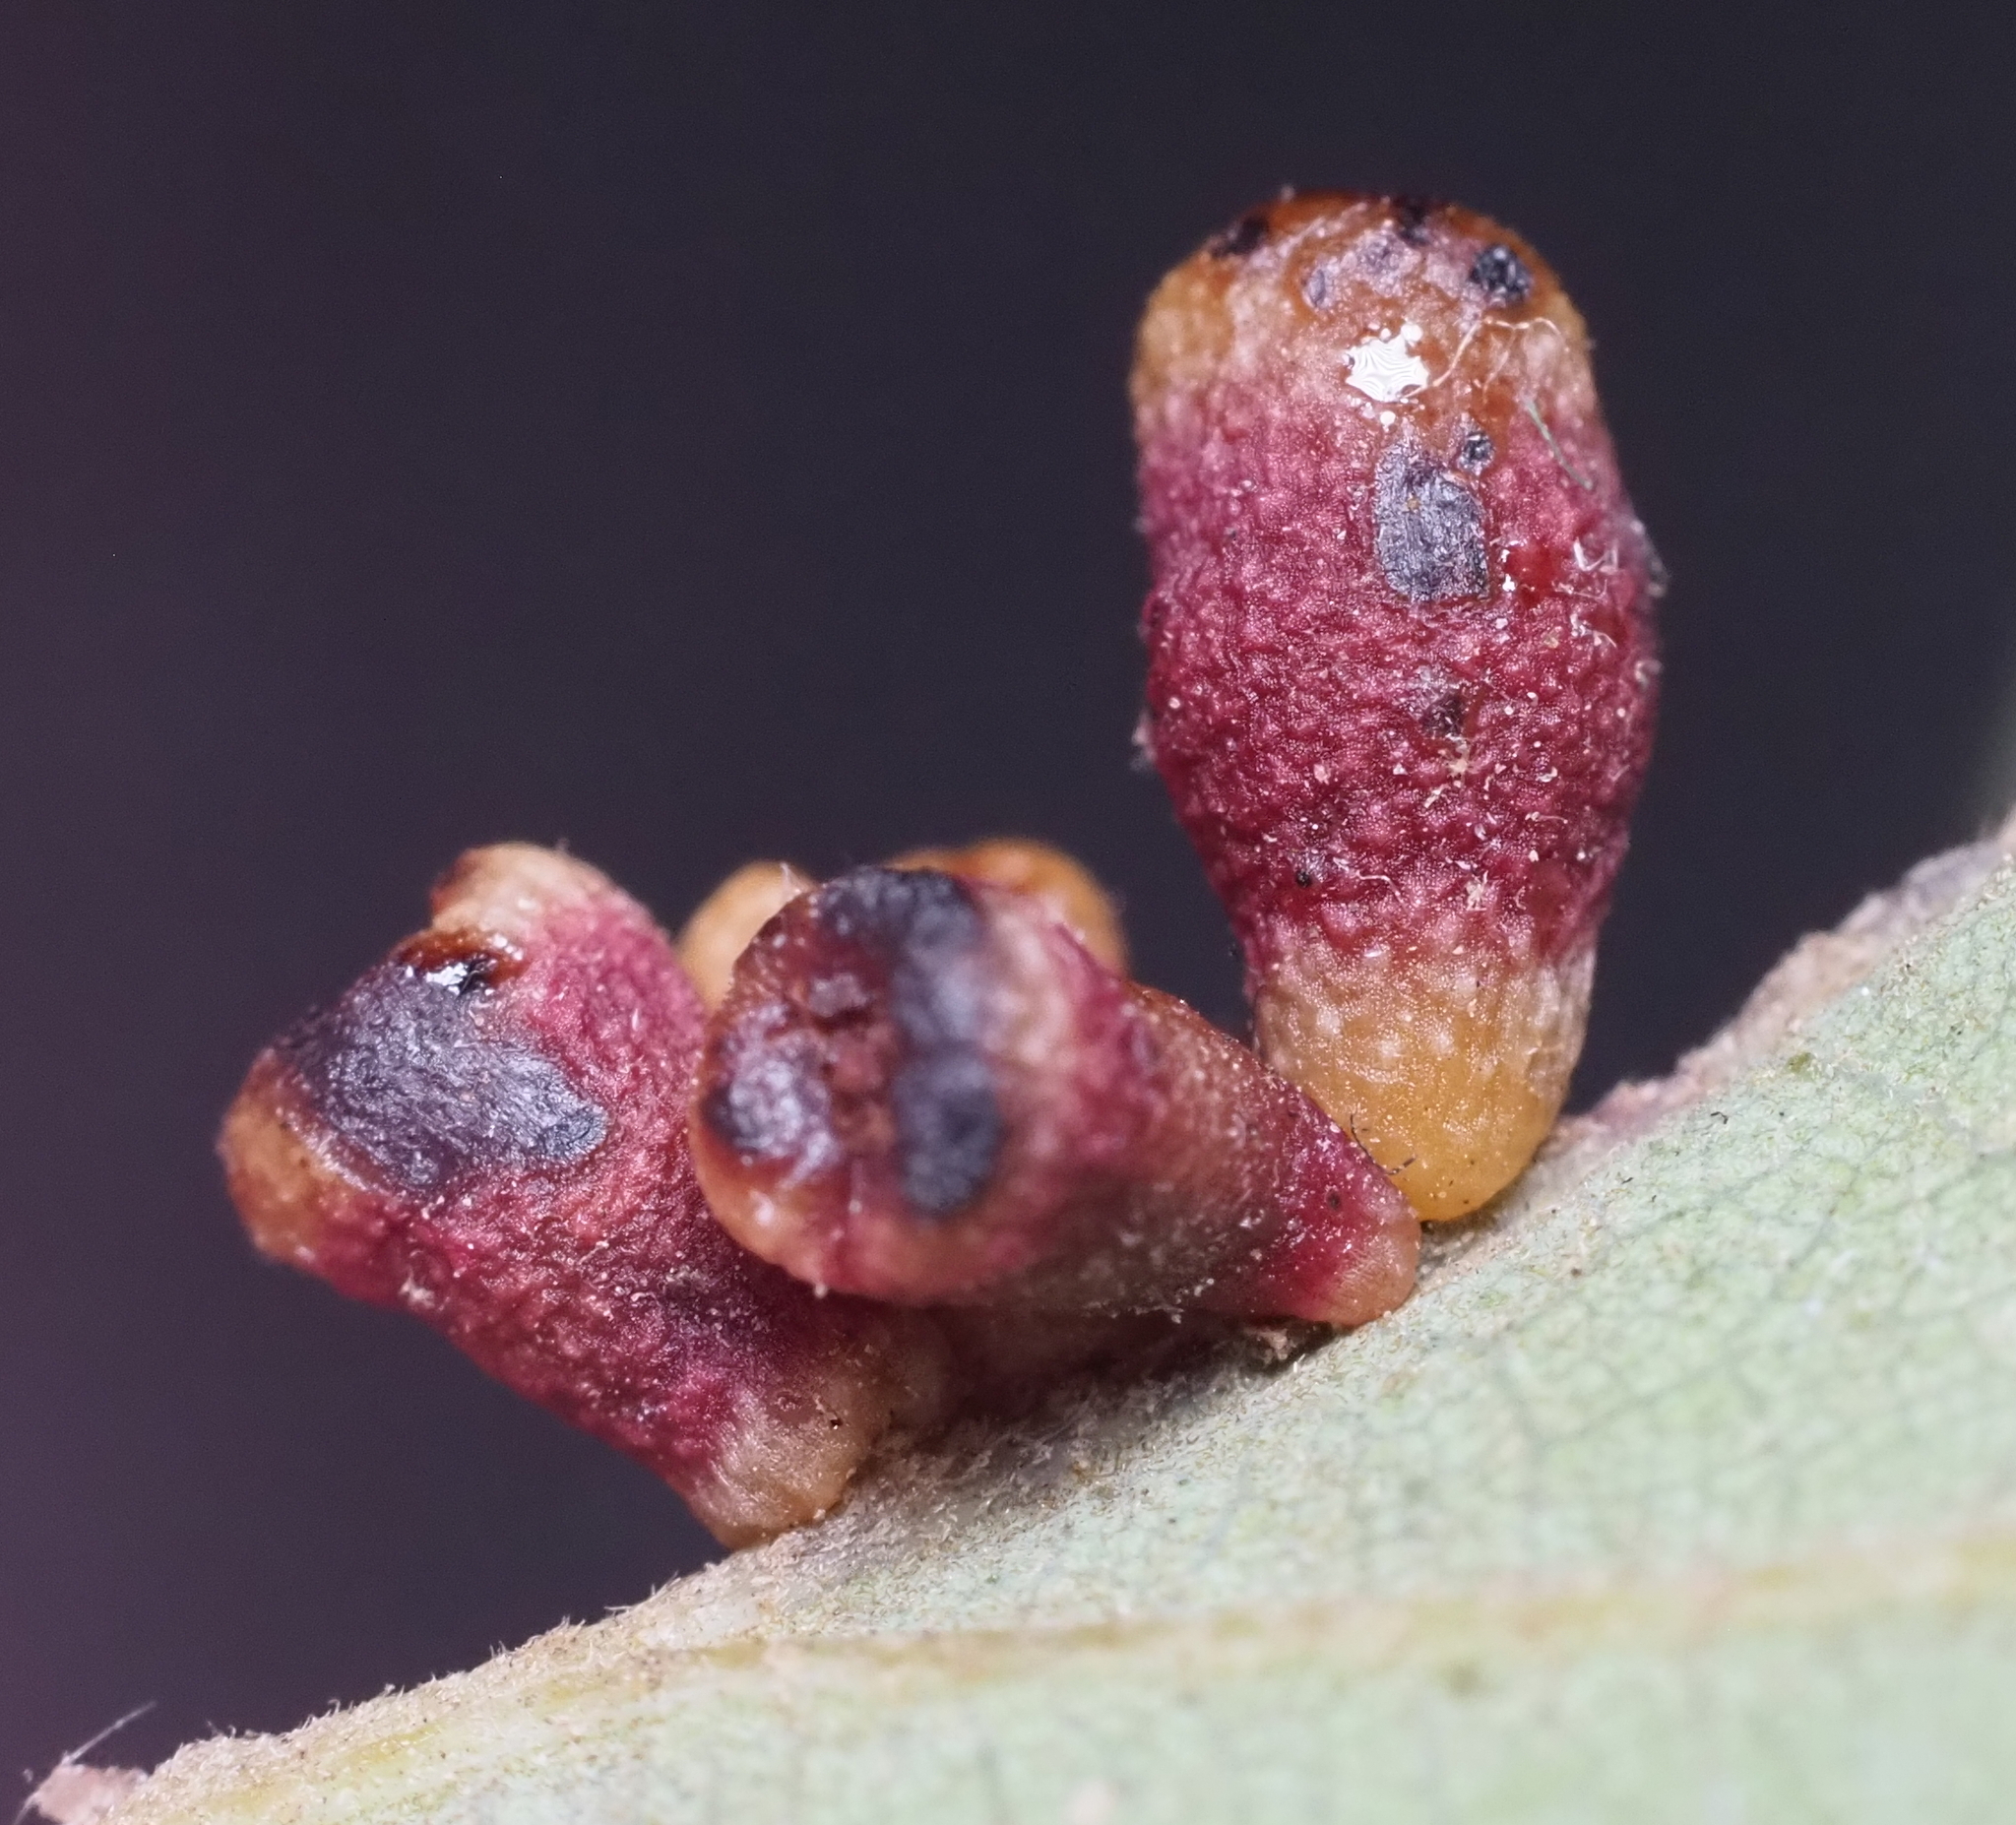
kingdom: Animalia
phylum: Arthropoda
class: Insecta
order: Hymenoptera
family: Cynipidae
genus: Andricus
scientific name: Andricus lustrans
